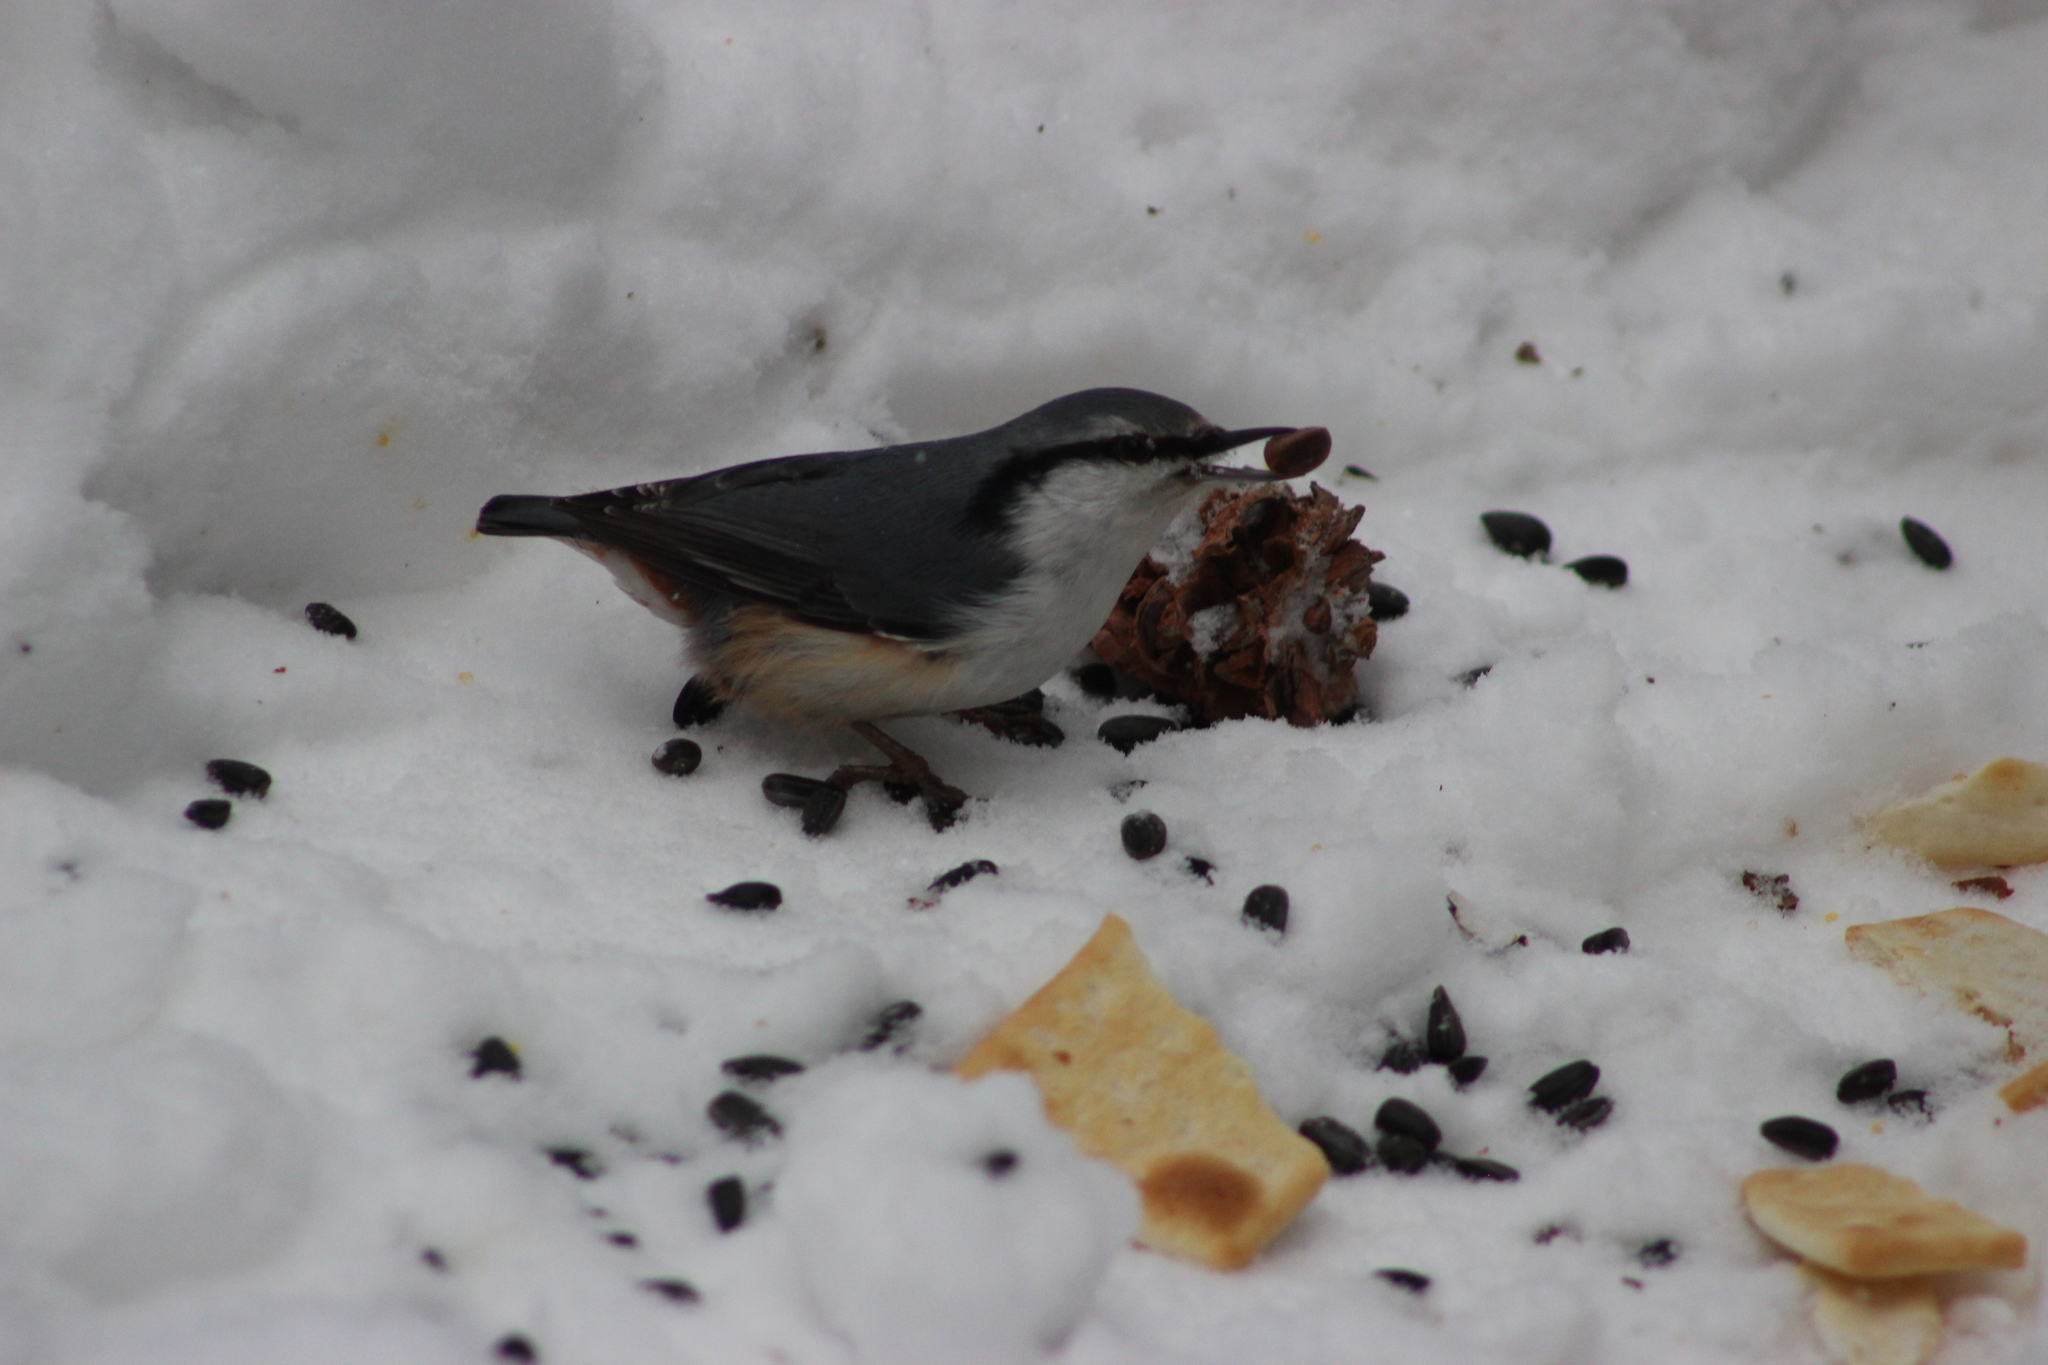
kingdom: Animalia
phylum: Chordata
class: Aves
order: Passeriformes
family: Sittidae
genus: Sitta
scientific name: Sitta europaea
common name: Eurasian nuthatch
